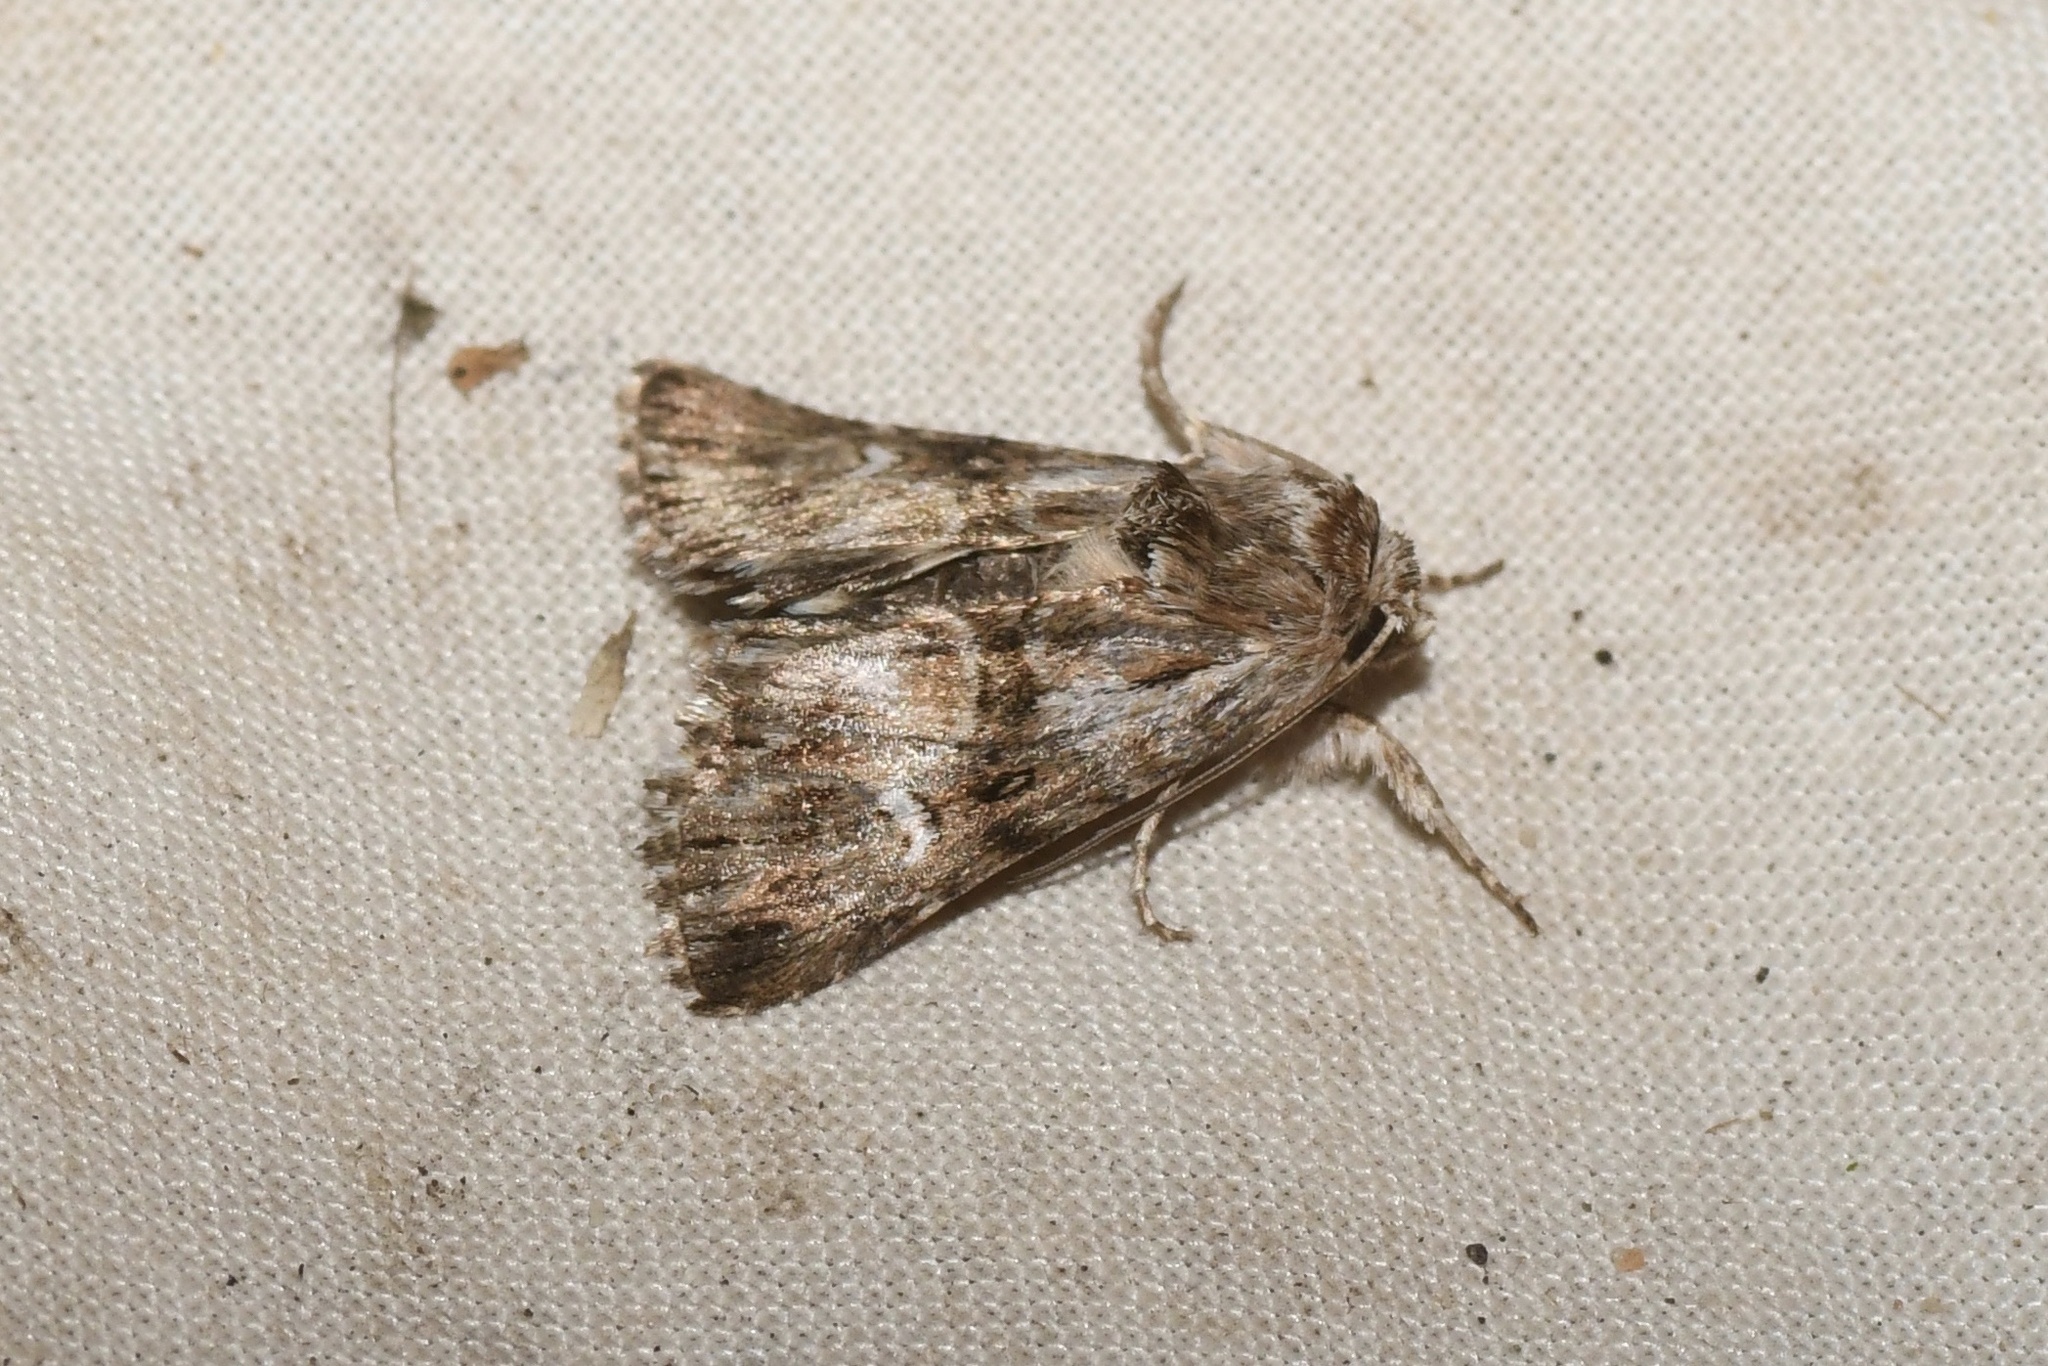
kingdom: Animalia
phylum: Arthropoda
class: Insecta
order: Lepidoptera
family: Noctuidae
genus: Calophasia
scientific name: Calophasia lunula
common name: Toadflax brocade
